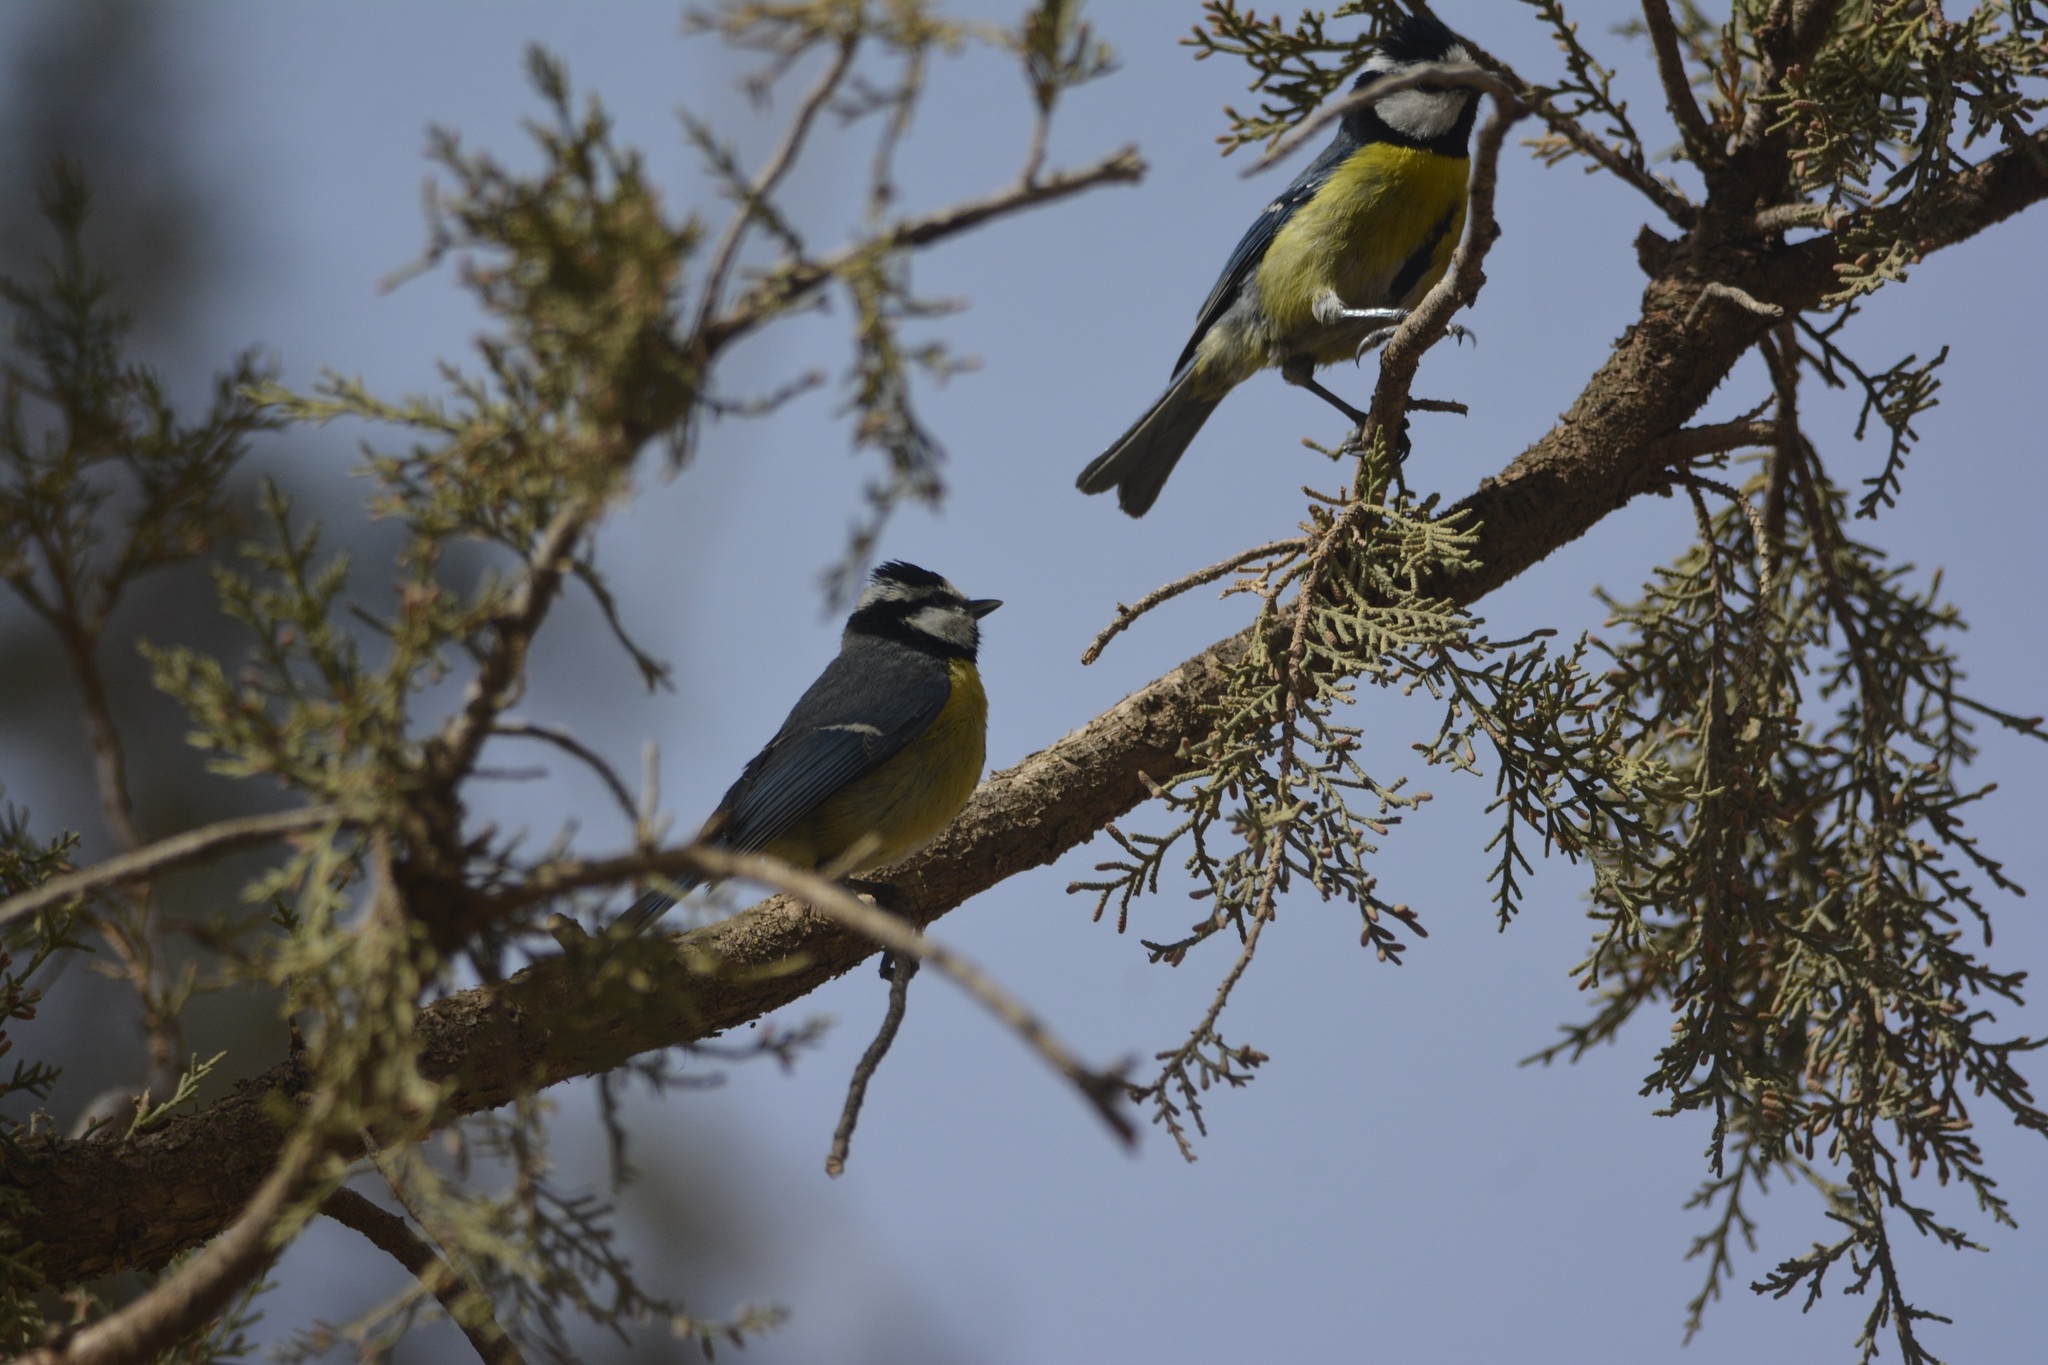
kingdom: Animalia
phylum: Chordata
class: Aves
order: Passeriformes
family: Paridae
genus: Cyanistes
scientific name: Cyanistes teneriffae
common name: African blue tit
